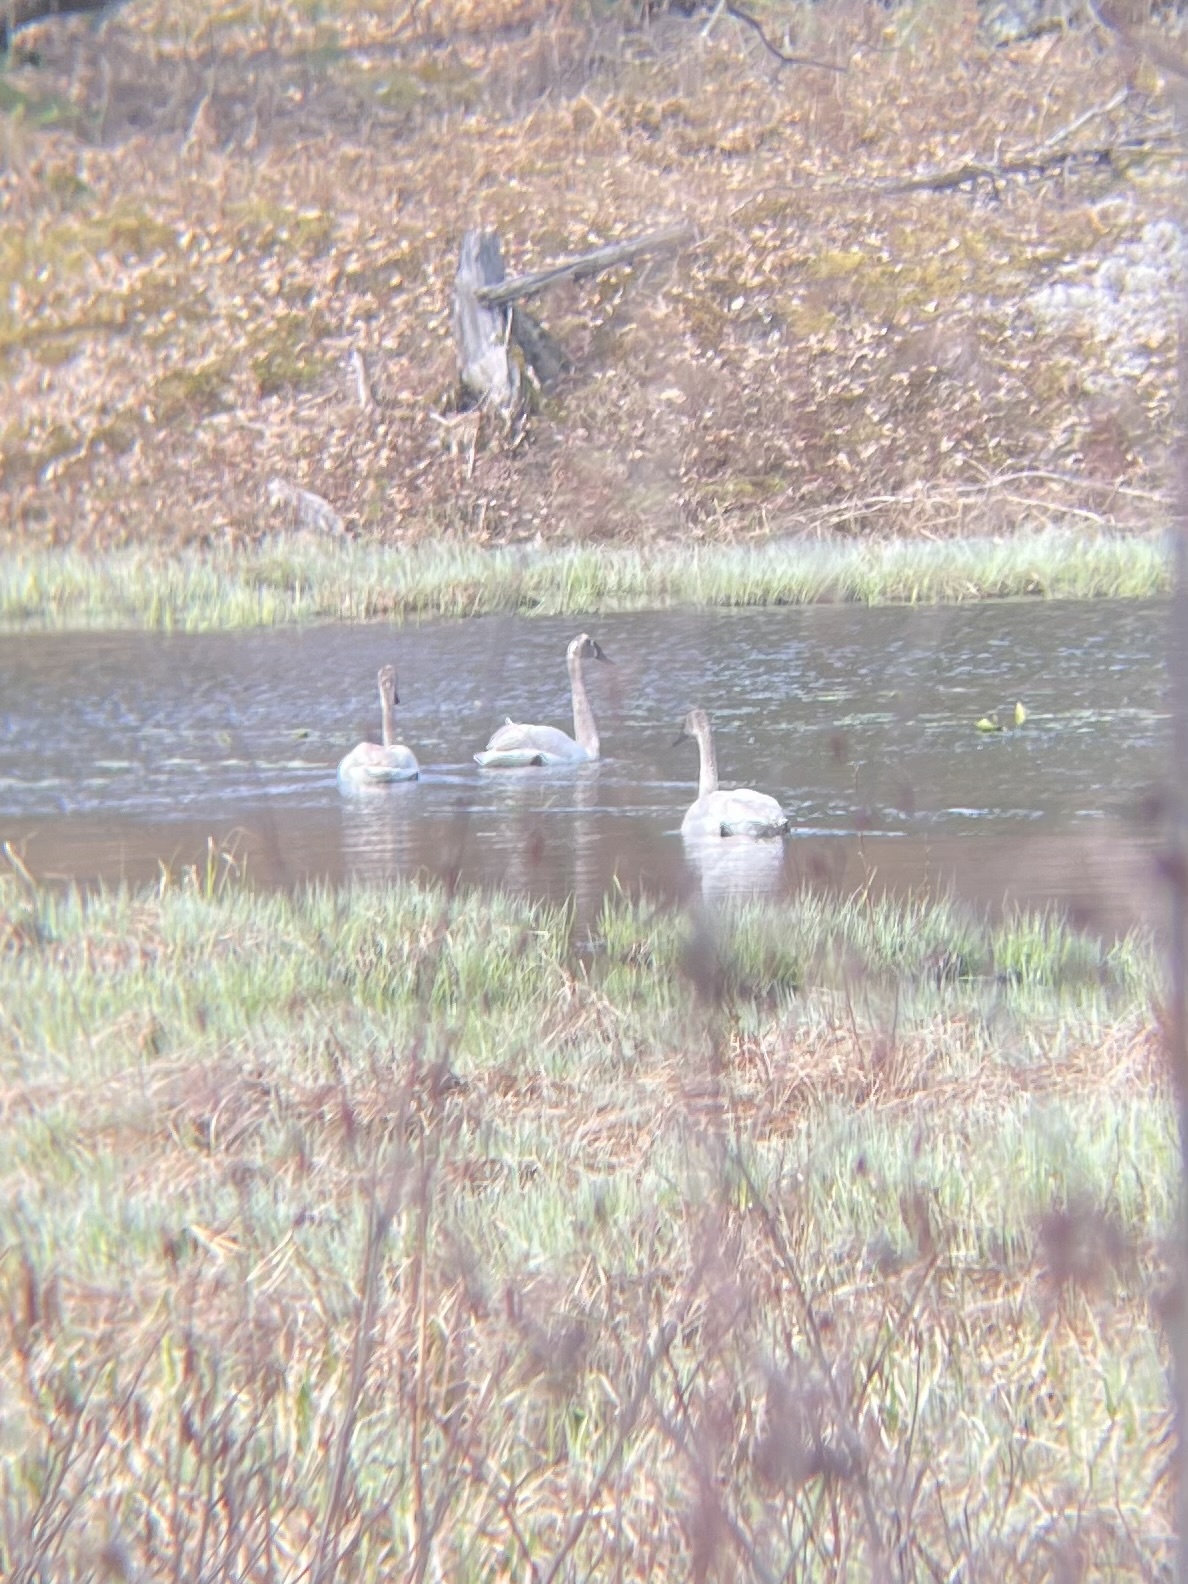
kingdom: Animalia
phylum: Chordata
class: Aves
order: Anseriformes
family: Anatidae
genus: Cygnus
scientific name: Cygnus buccinator
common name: Trumpeter swan
